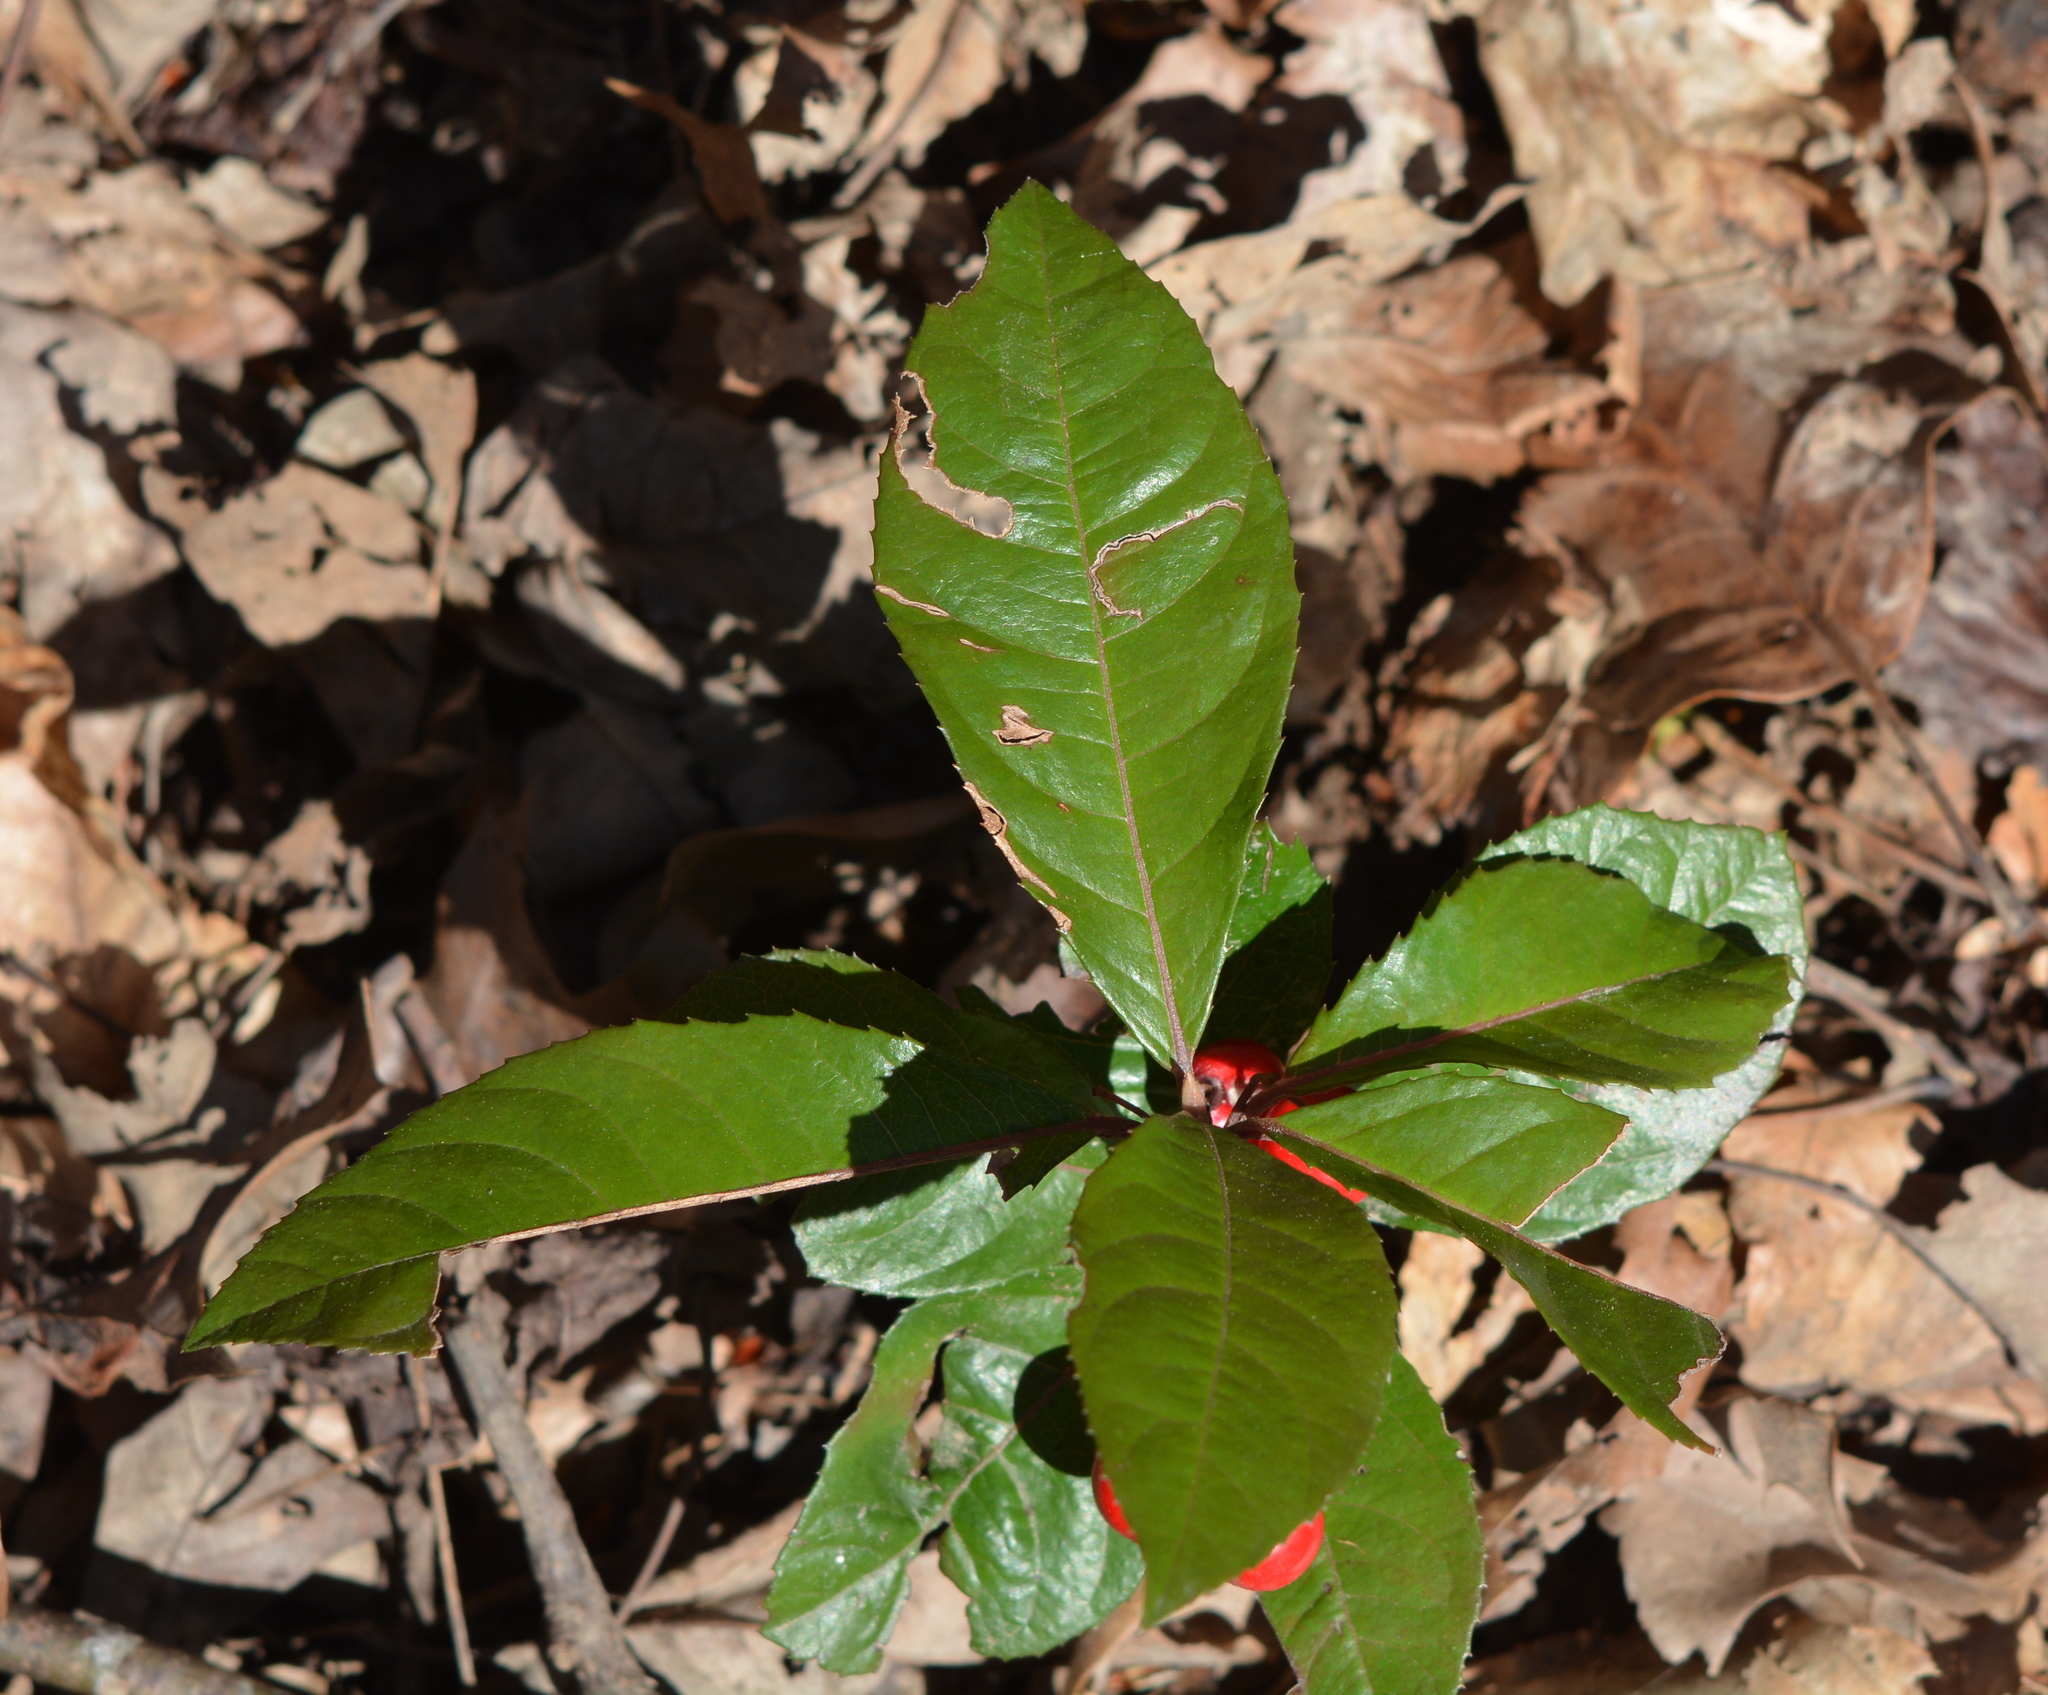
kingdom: Plantae
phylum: Tracheophyta
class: Magnoliopsida
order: Ericales
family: Primulaceae
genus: Ardisia
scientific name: Ardisia japonica
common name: Marlberry
